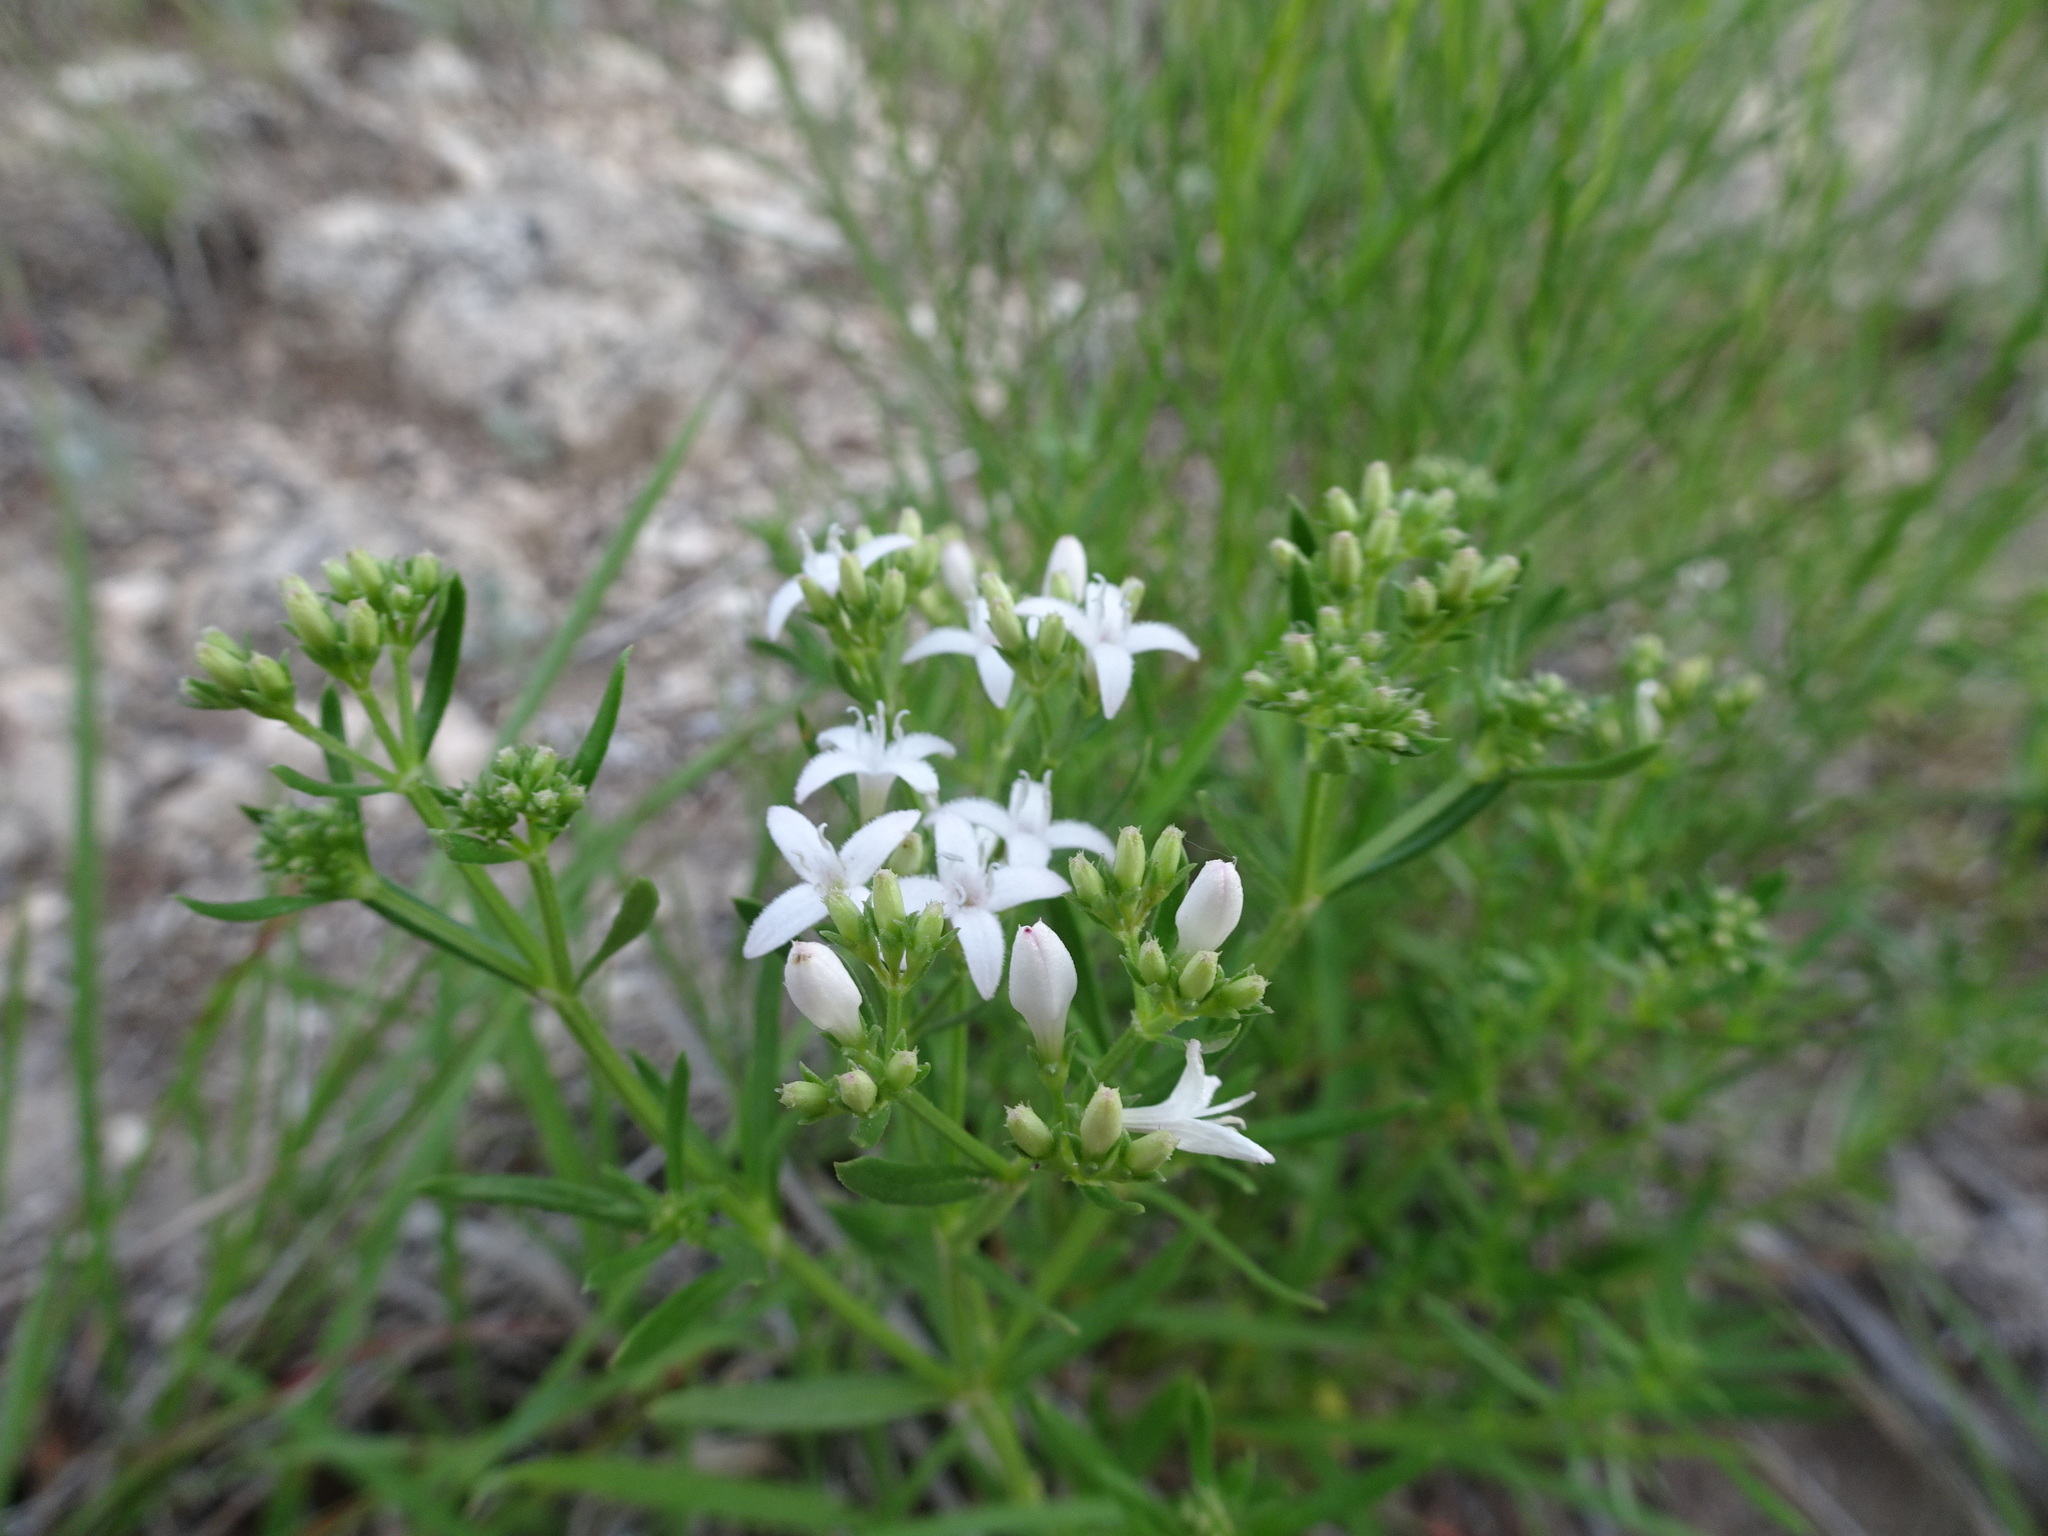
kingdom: Plantae
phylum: Tracheophyta
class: Magnoliopsida
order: Gentianales
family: Rubiaceae
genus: Stenaria
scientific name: Stenaria nigricans
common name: Diamondflowers
